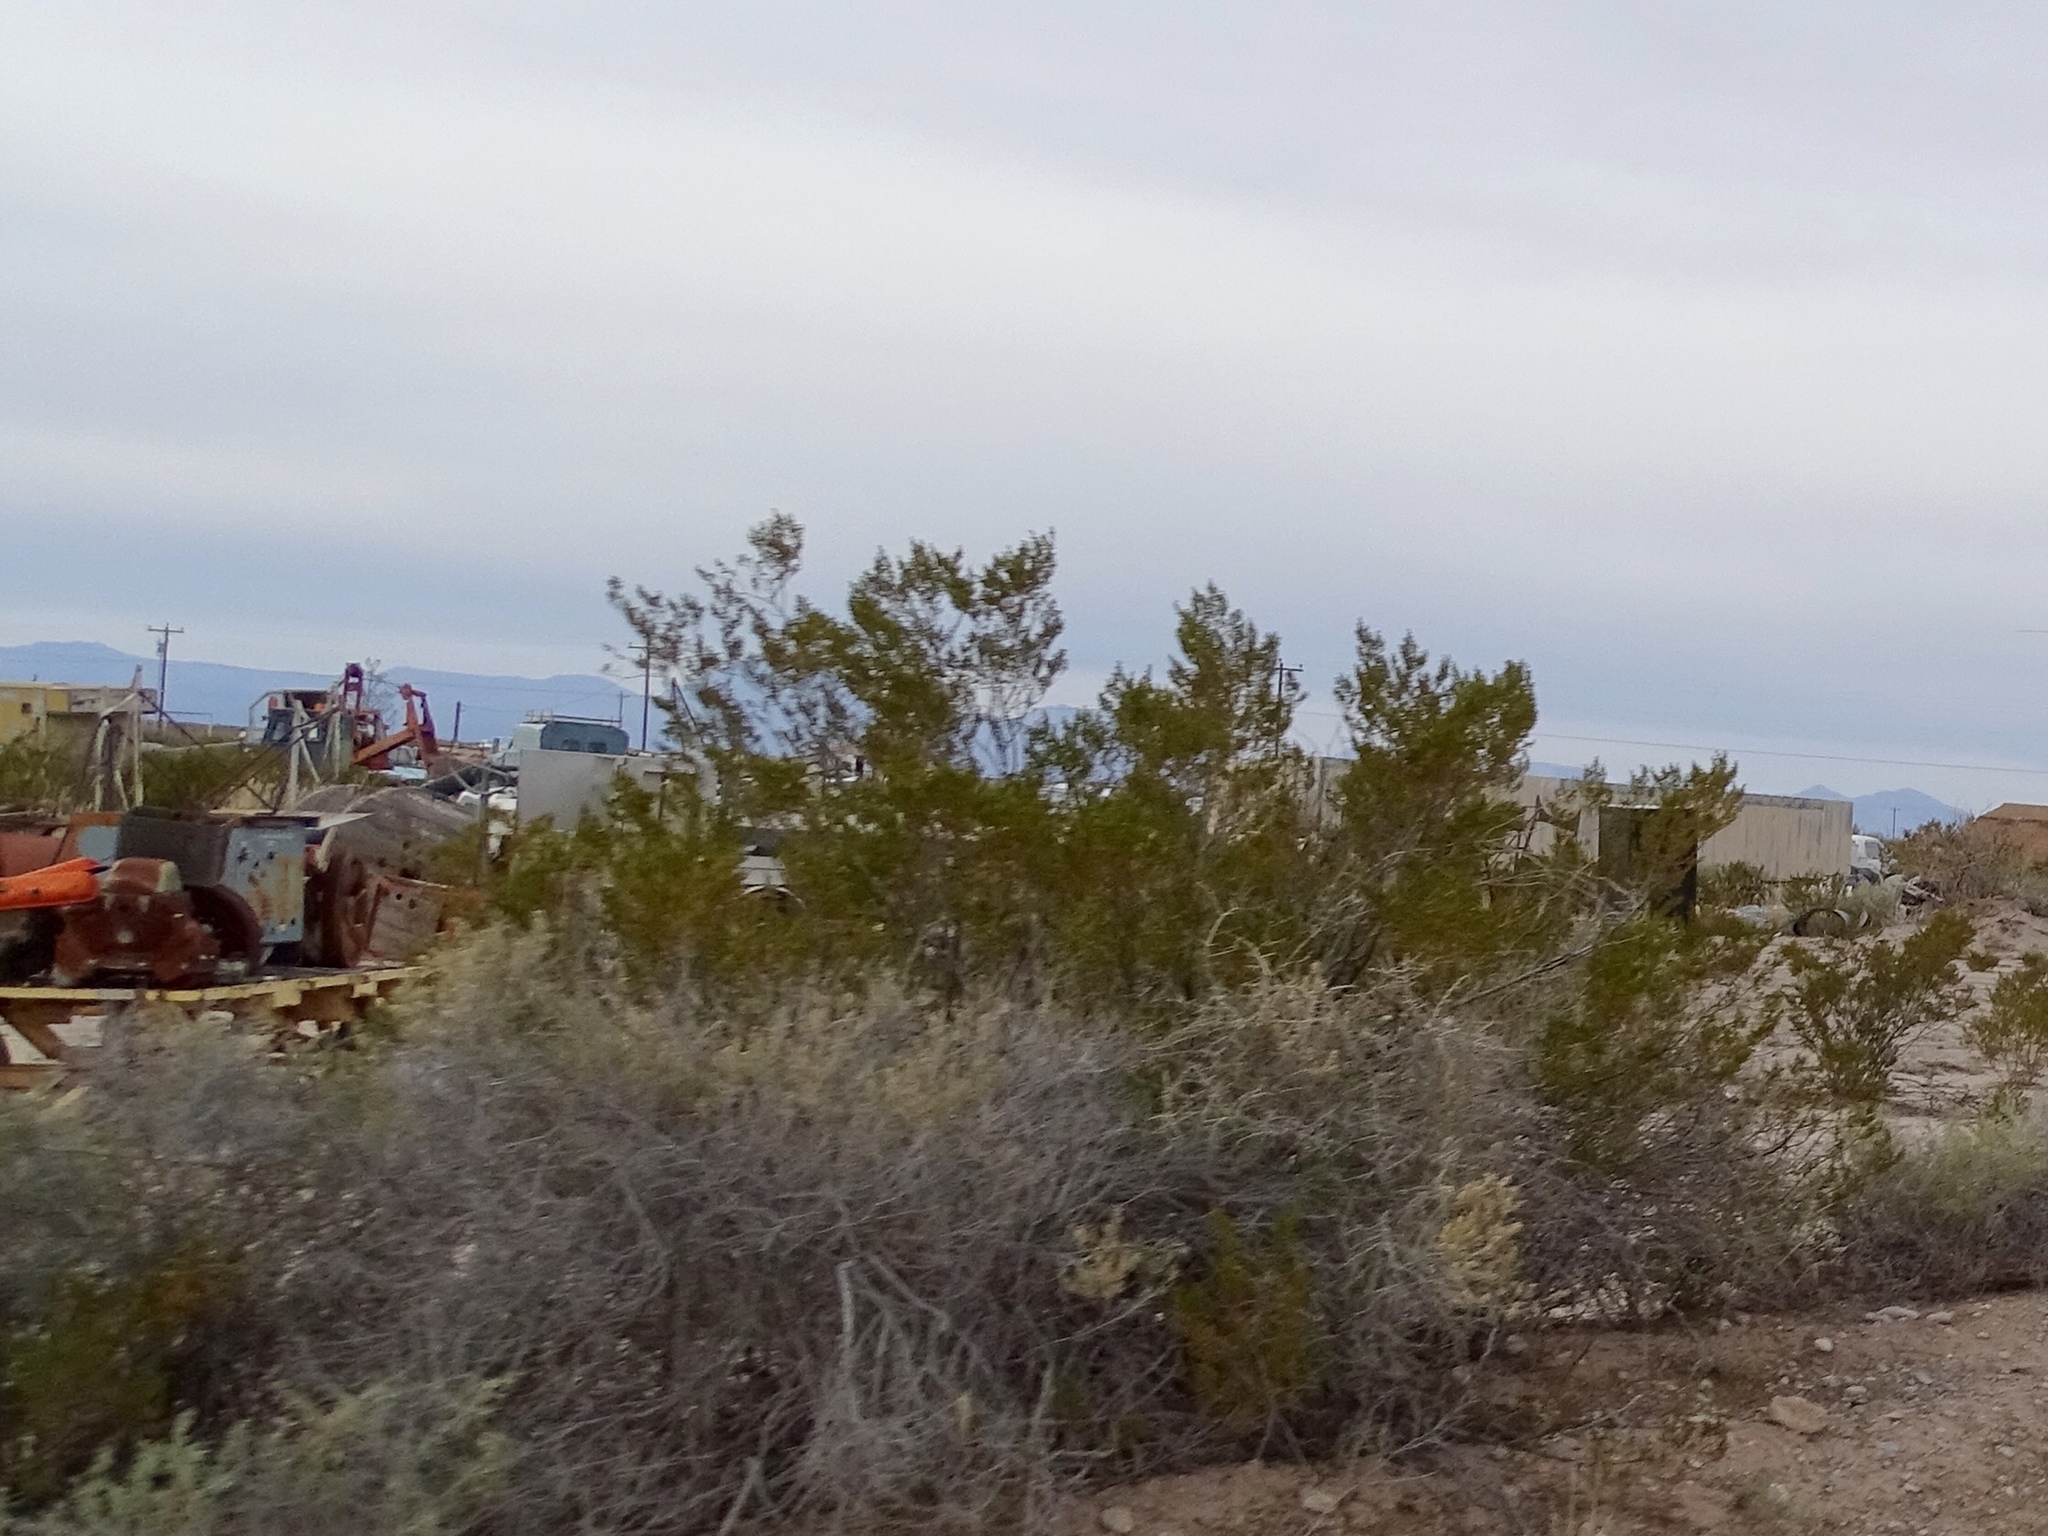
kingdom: Plantae
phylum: Tracheophyta
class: Magnoliopsida
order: Zygophyllales
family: Zygophyllaceae
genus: Larrea
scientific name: Larrea tridentata
